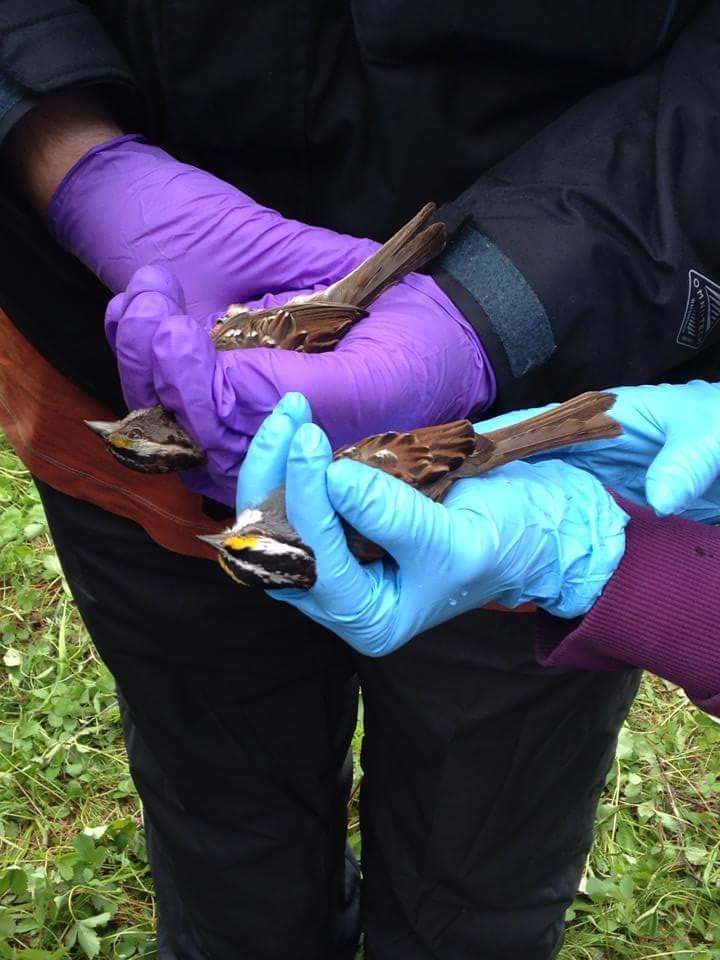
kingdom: Animalia
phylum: Chordata
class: Aves
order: Passeriformes
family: Passerellidae
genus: Zonotrichia
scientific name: Zonotrichia albicollis
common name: White-throated sparrow
